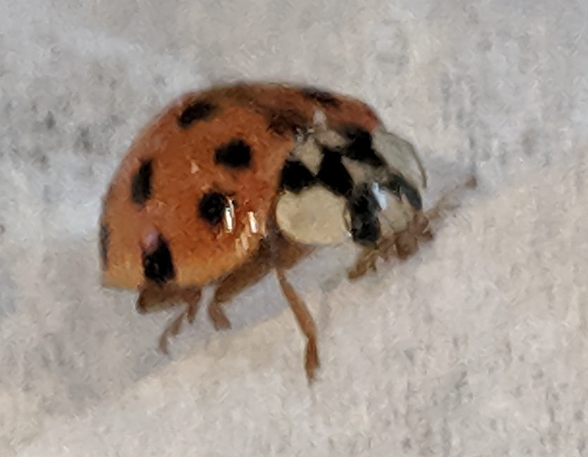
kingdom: Animalia
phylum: Arthropoda
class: Insecta
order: Coleoptera
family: Coccinellidae
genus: Harmonia
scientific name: Harmonia axyridis
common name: Harlequin ladybird
